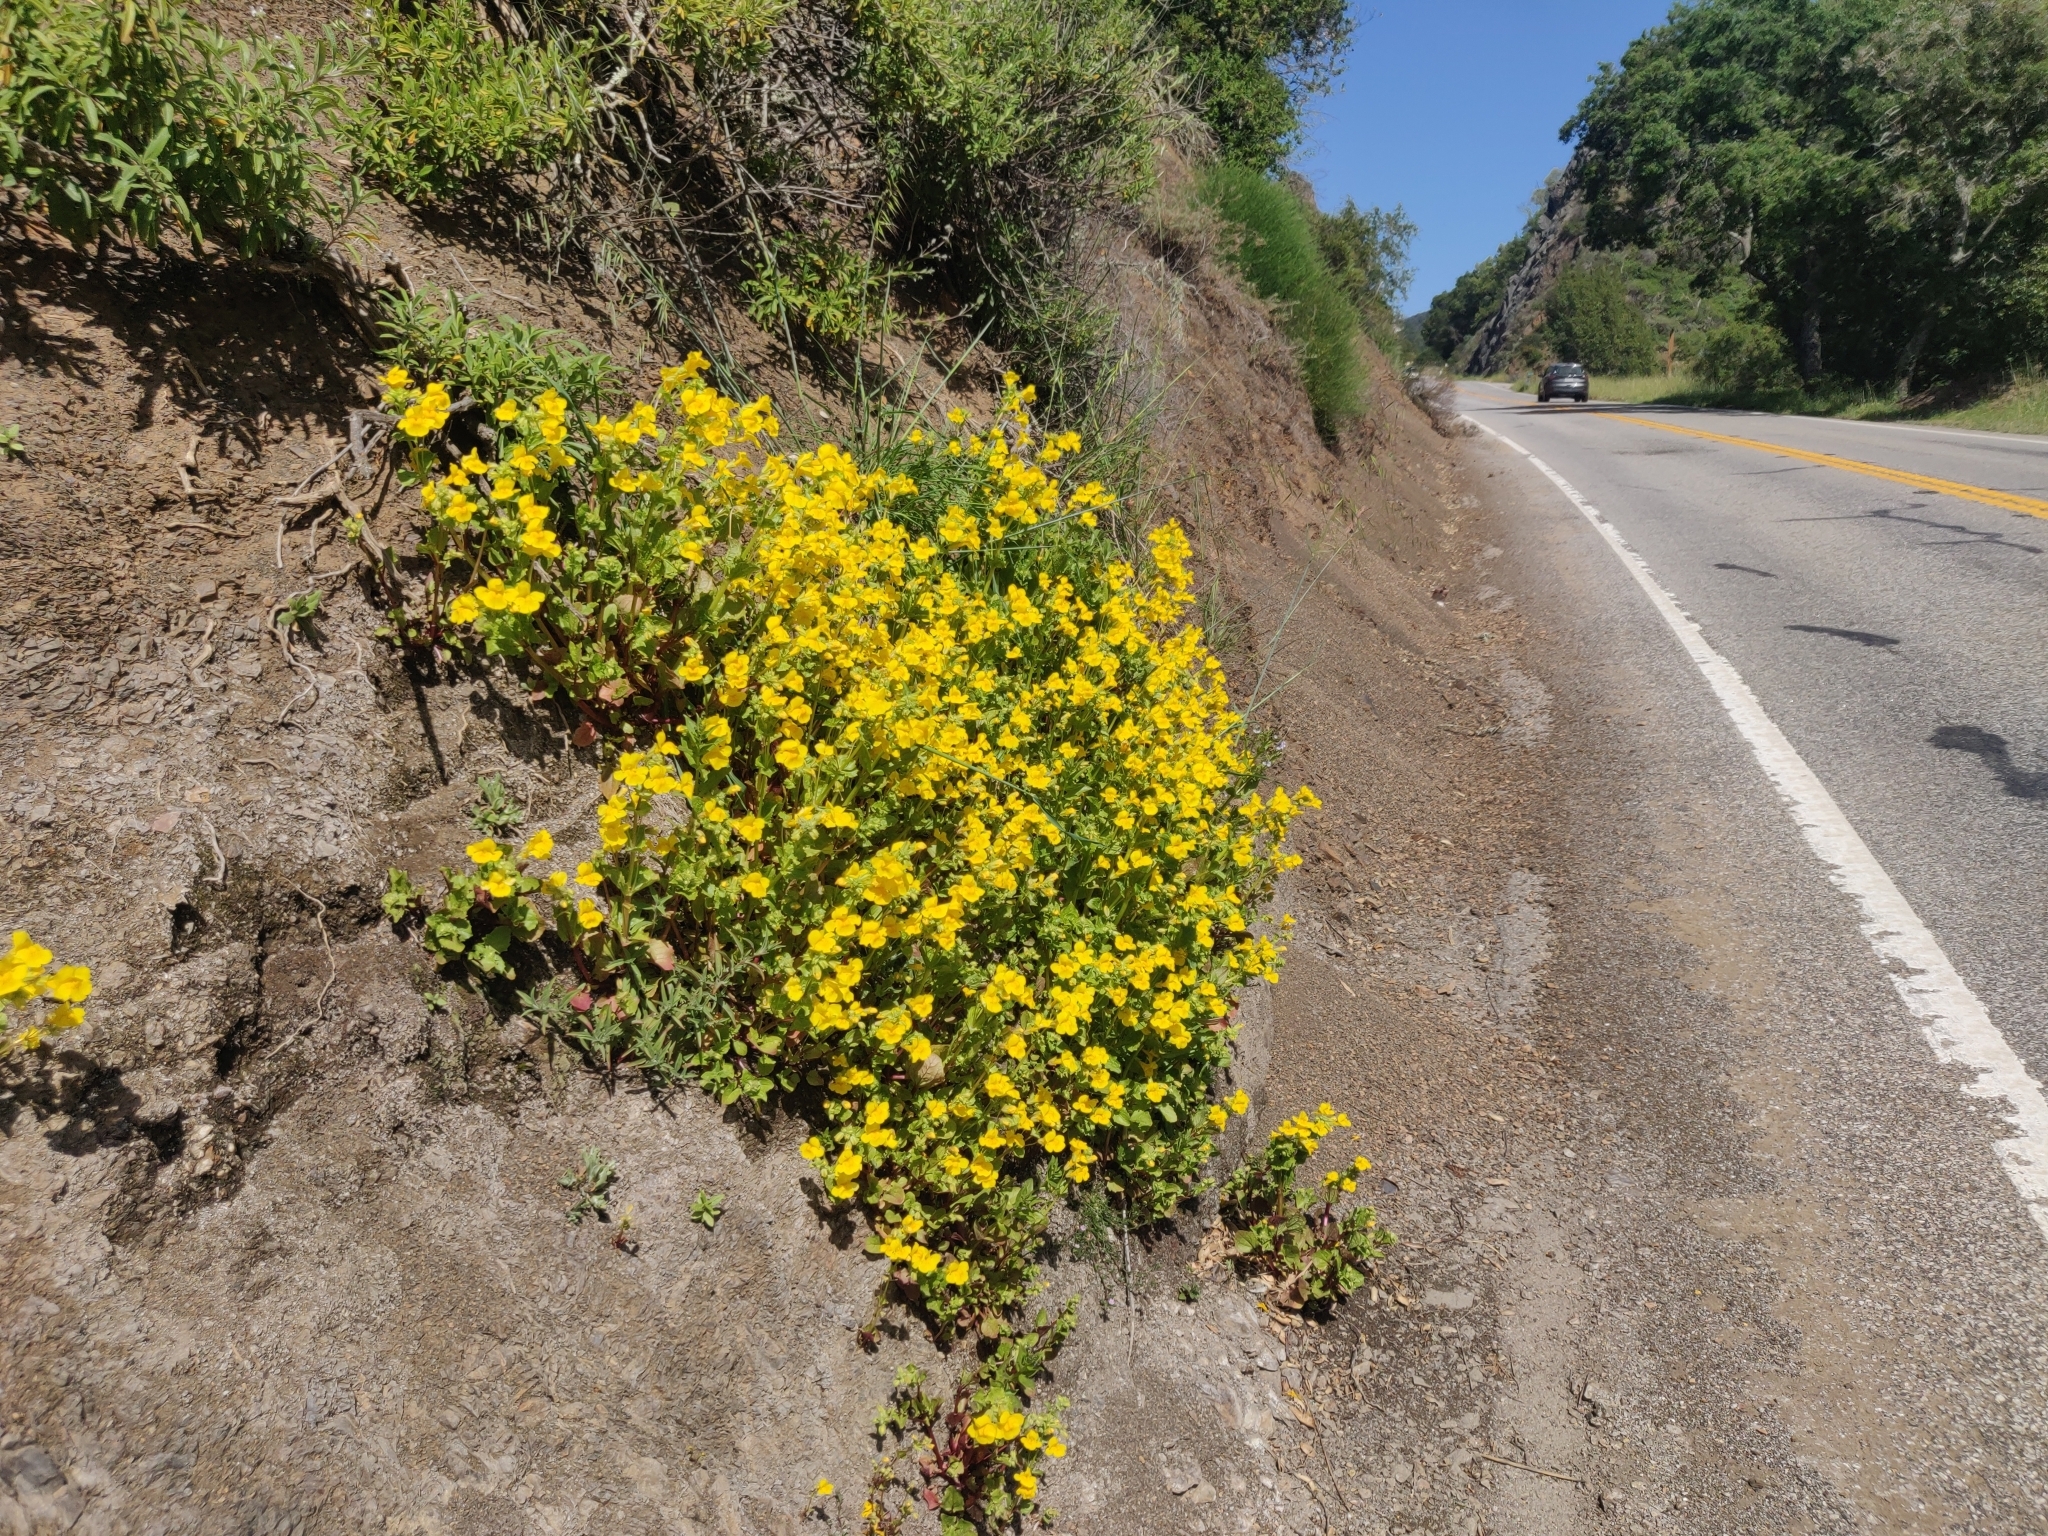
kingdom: Plantae
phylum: Tracheophyta
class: Magnoliopsida
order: Lamiales
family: Phrymaceae
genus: Erythranthe
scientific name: Erythranthe guttata
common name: Monkeyflower
